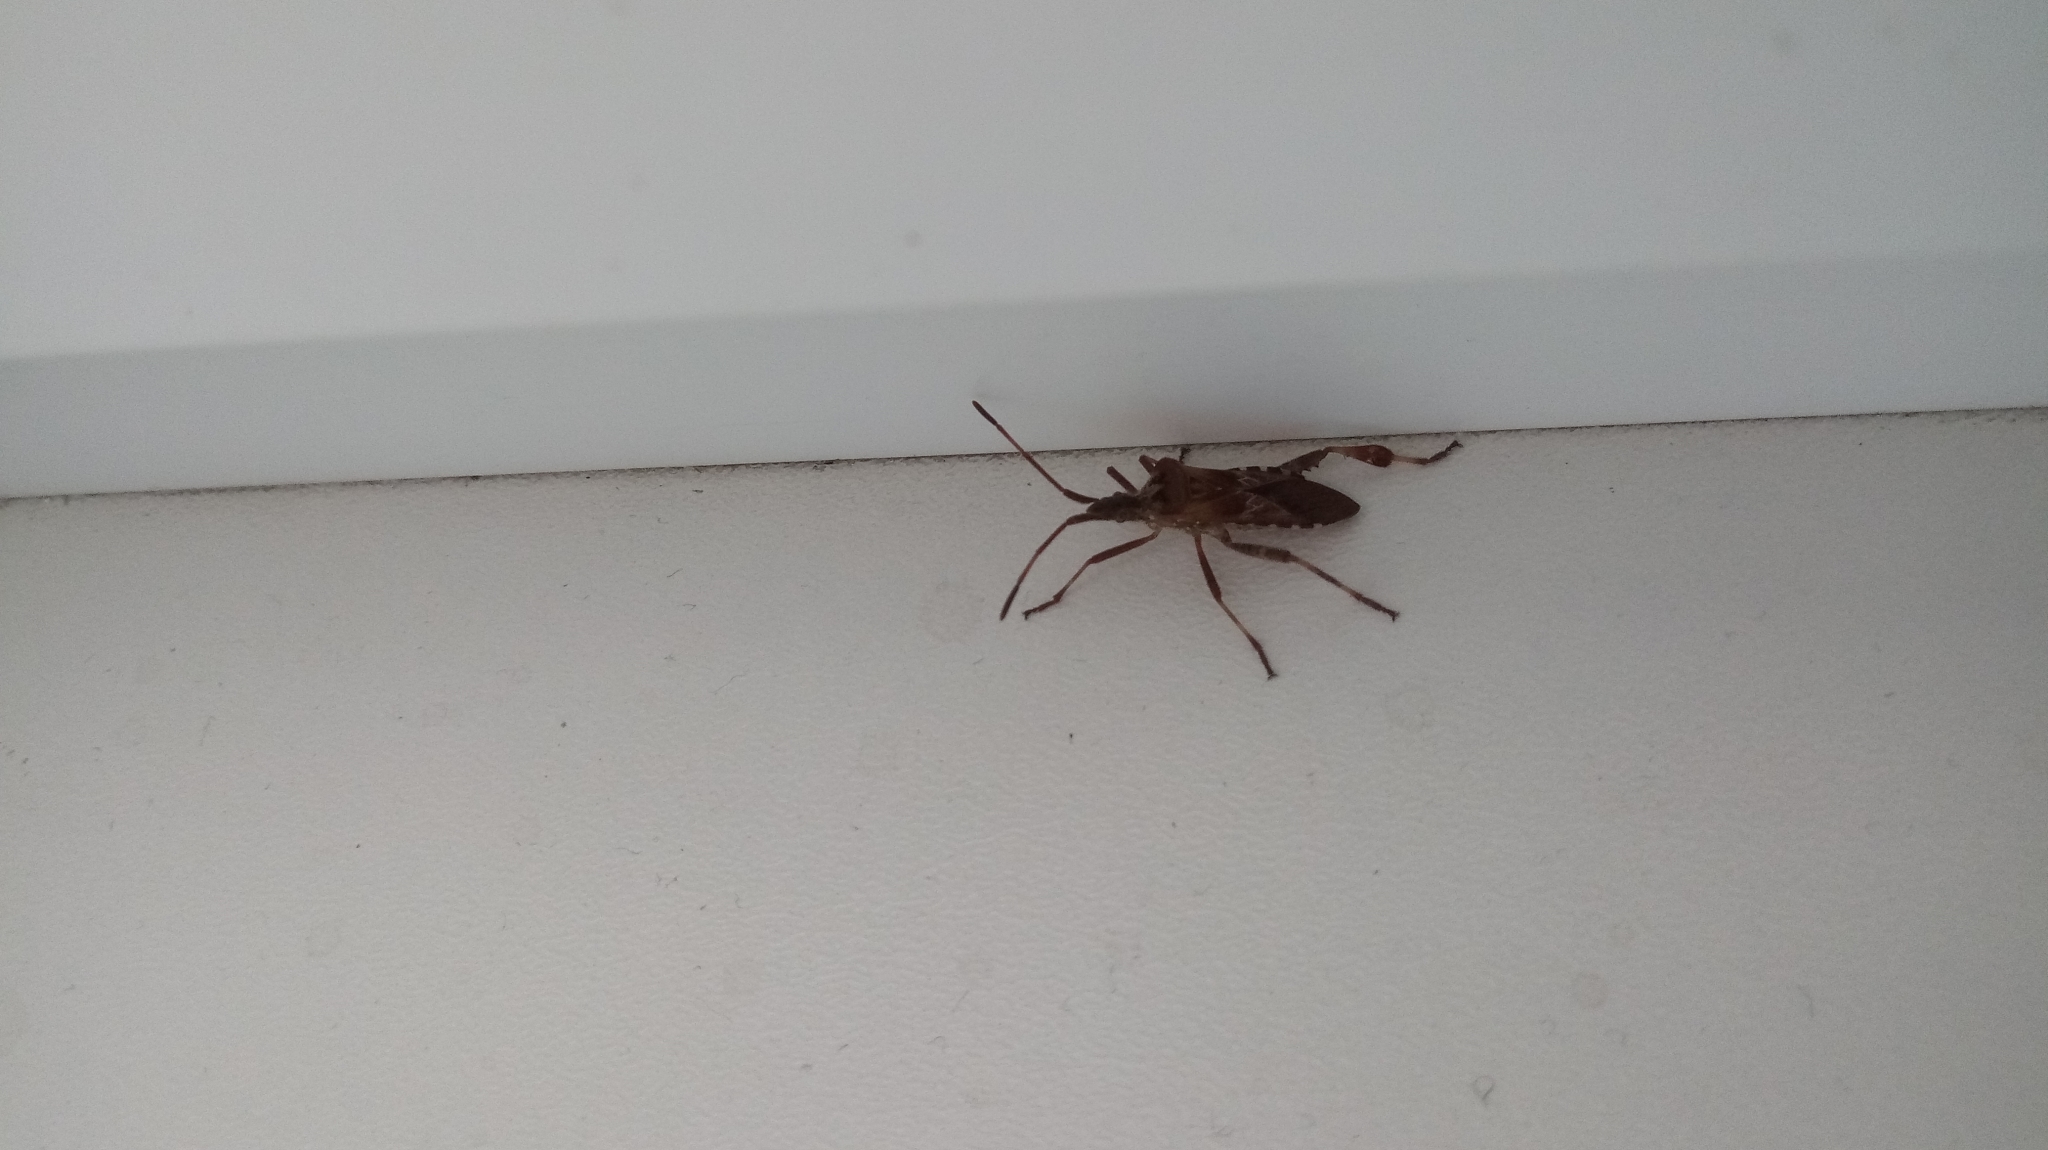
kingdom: Animalia
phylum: Arthropoda
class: Insecta
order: Hemiptera
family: Coreidae
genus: Leptoglossus
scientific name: Leptoglossus occidentalis
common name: Western conifer-seed bug
